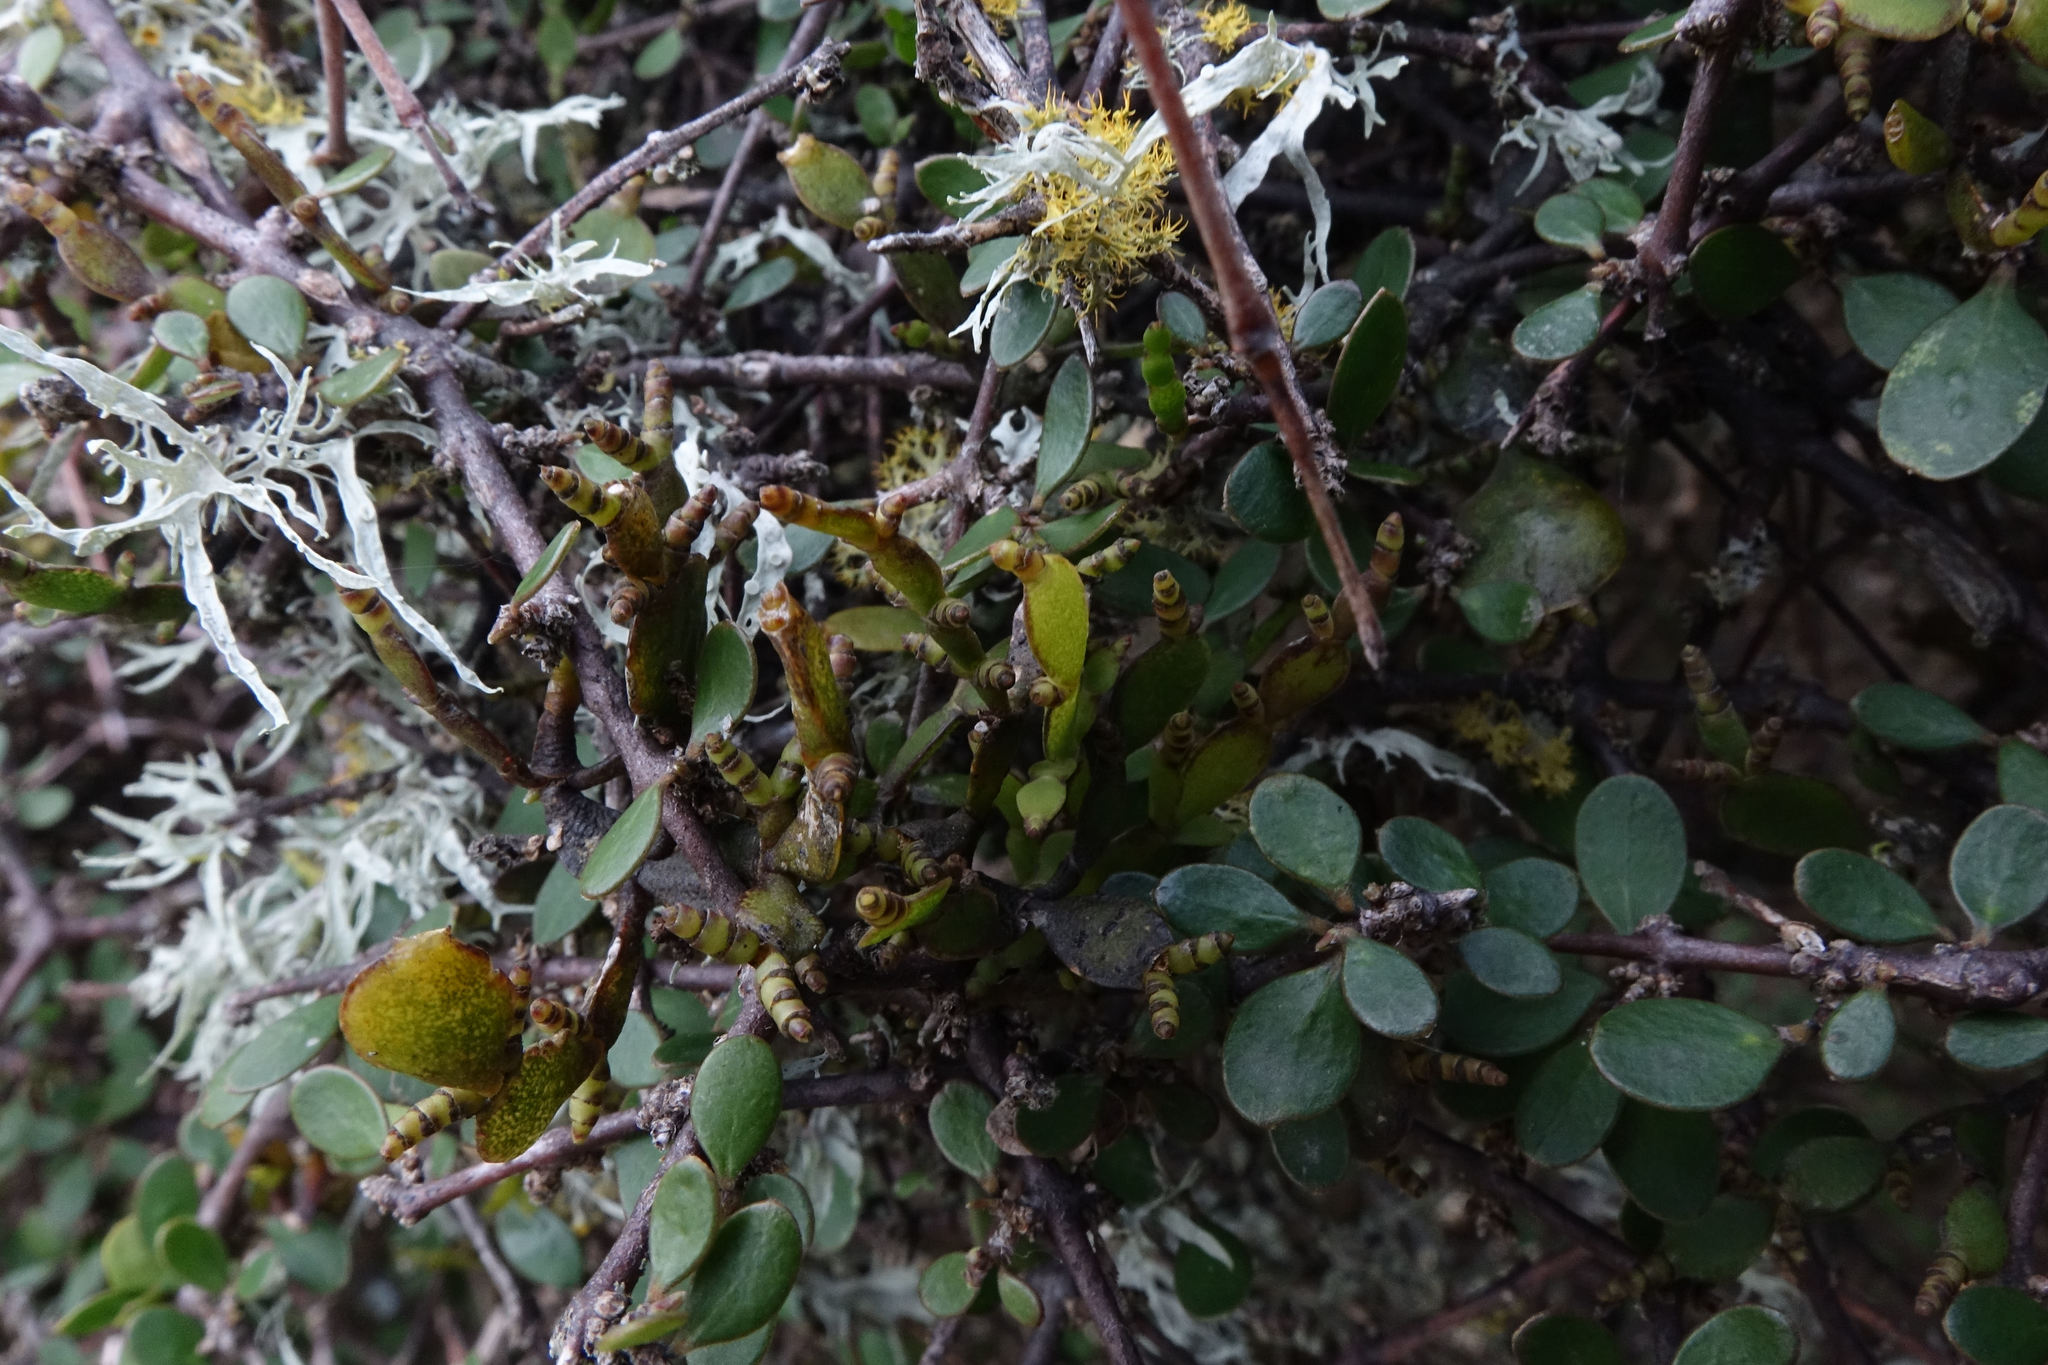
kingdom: Plantae
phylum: Tracheophyta
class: Magnoliopsida
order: Santalales
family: Viscaceae
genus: Korthalsella
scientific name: Korthalsella lindsayi
